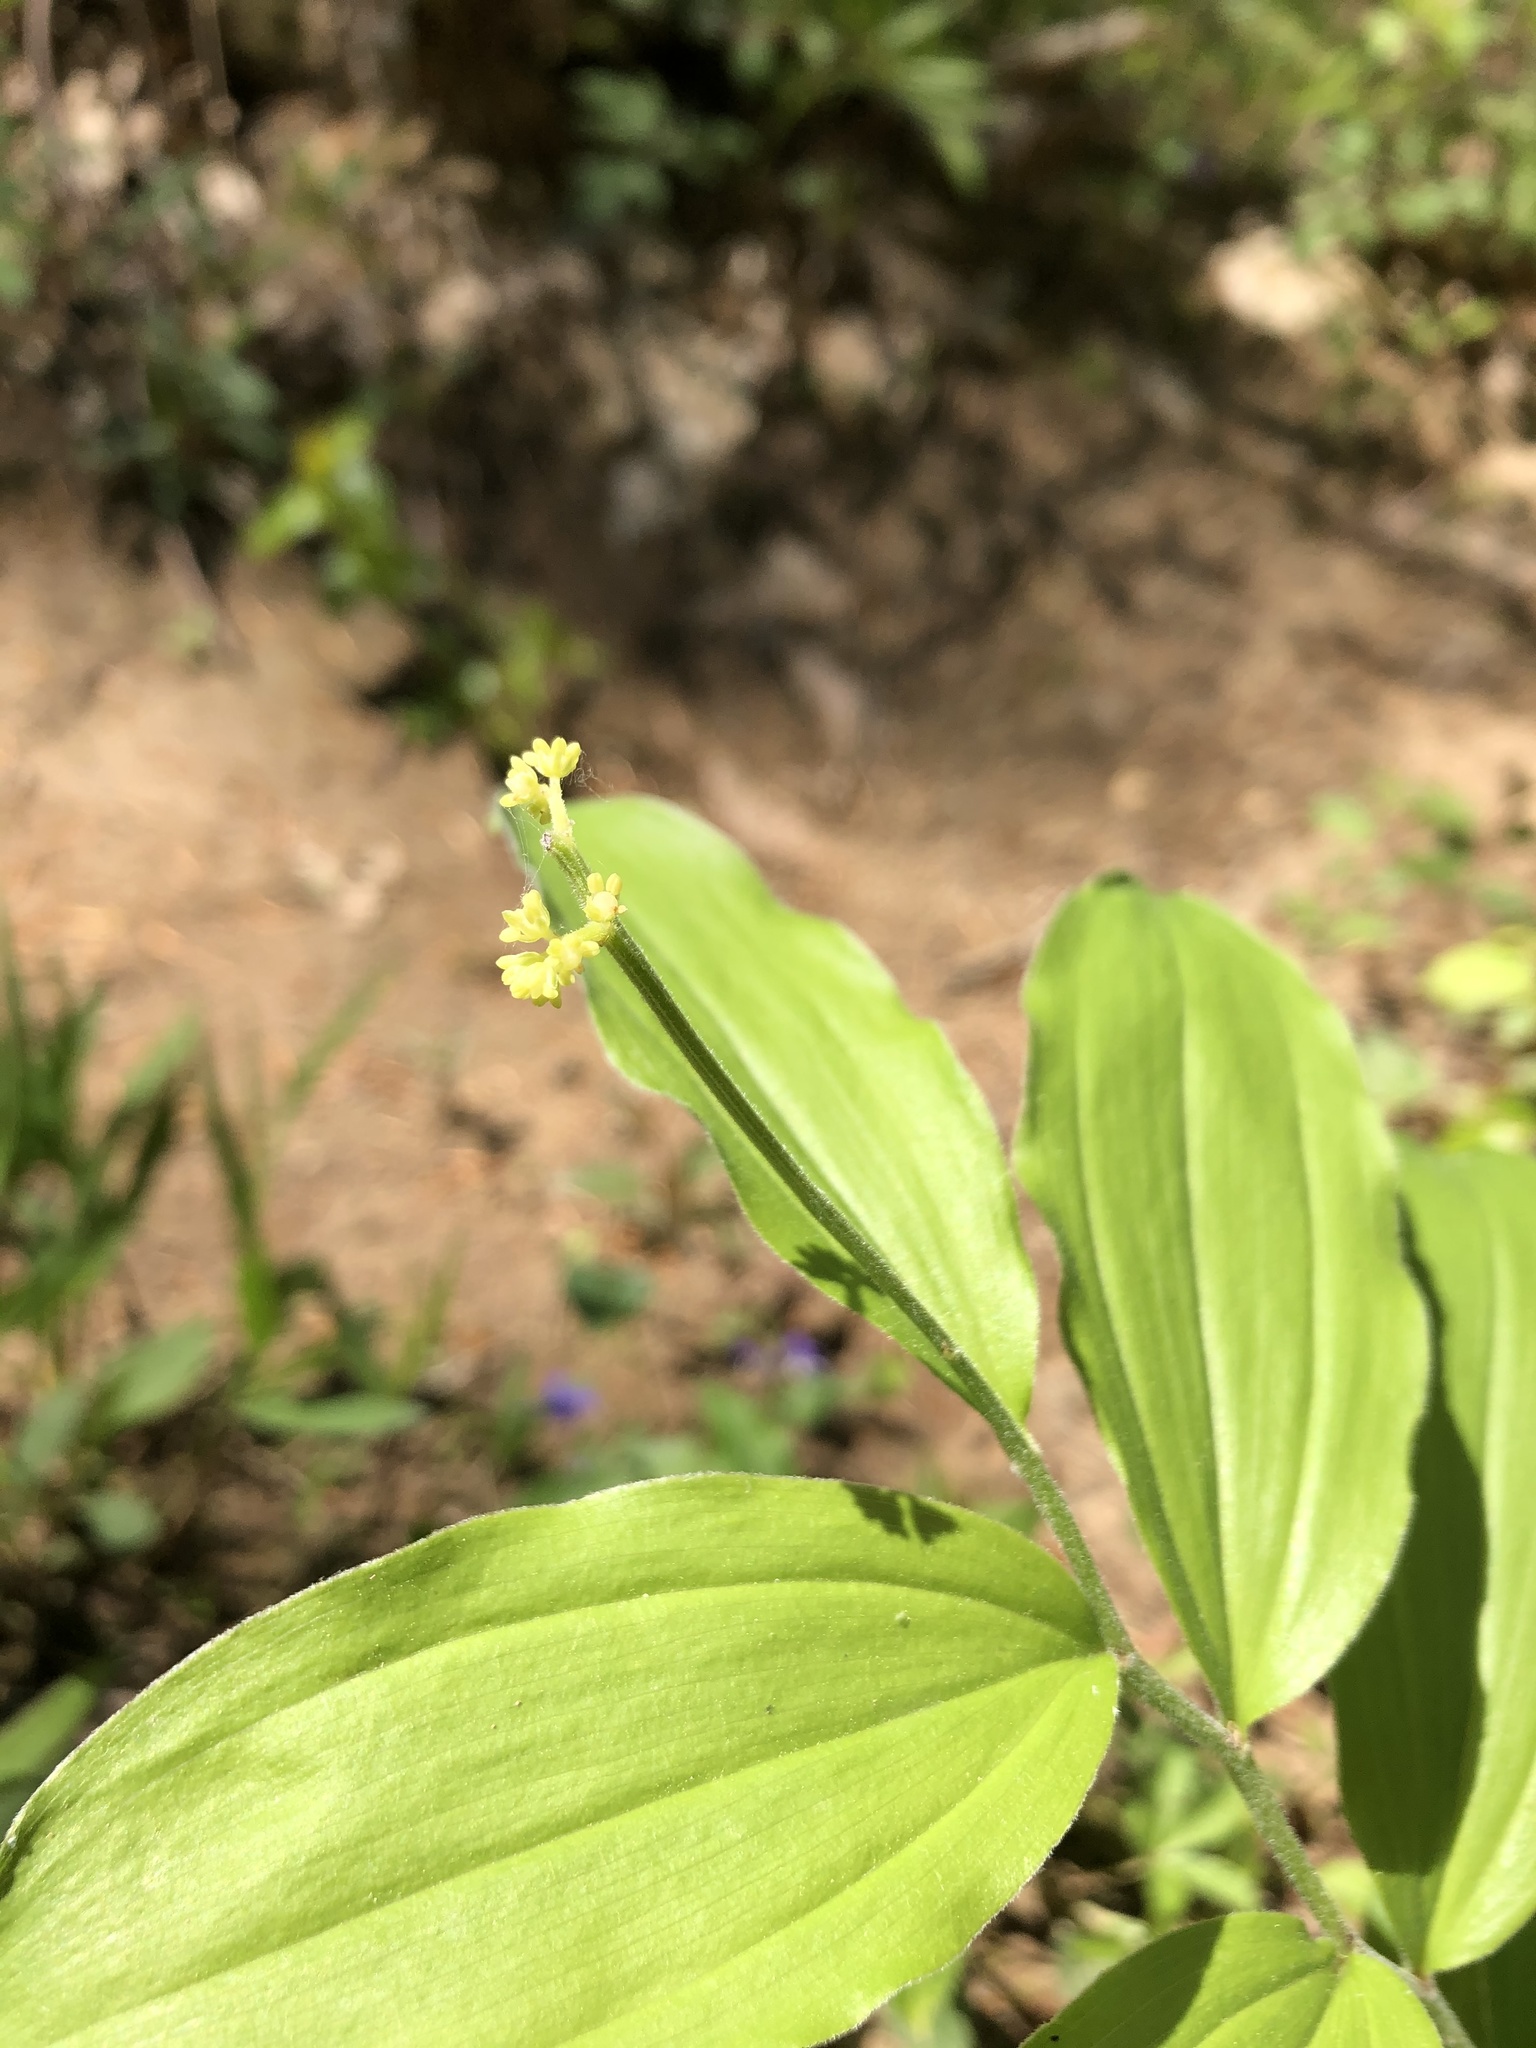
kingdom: Plantae
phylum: Tracheophyta
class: Liliopsida
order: Asparagales
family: Asparagaceae
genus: Maianthemum
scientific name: Maianthemum racemosum
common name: False spikenard
